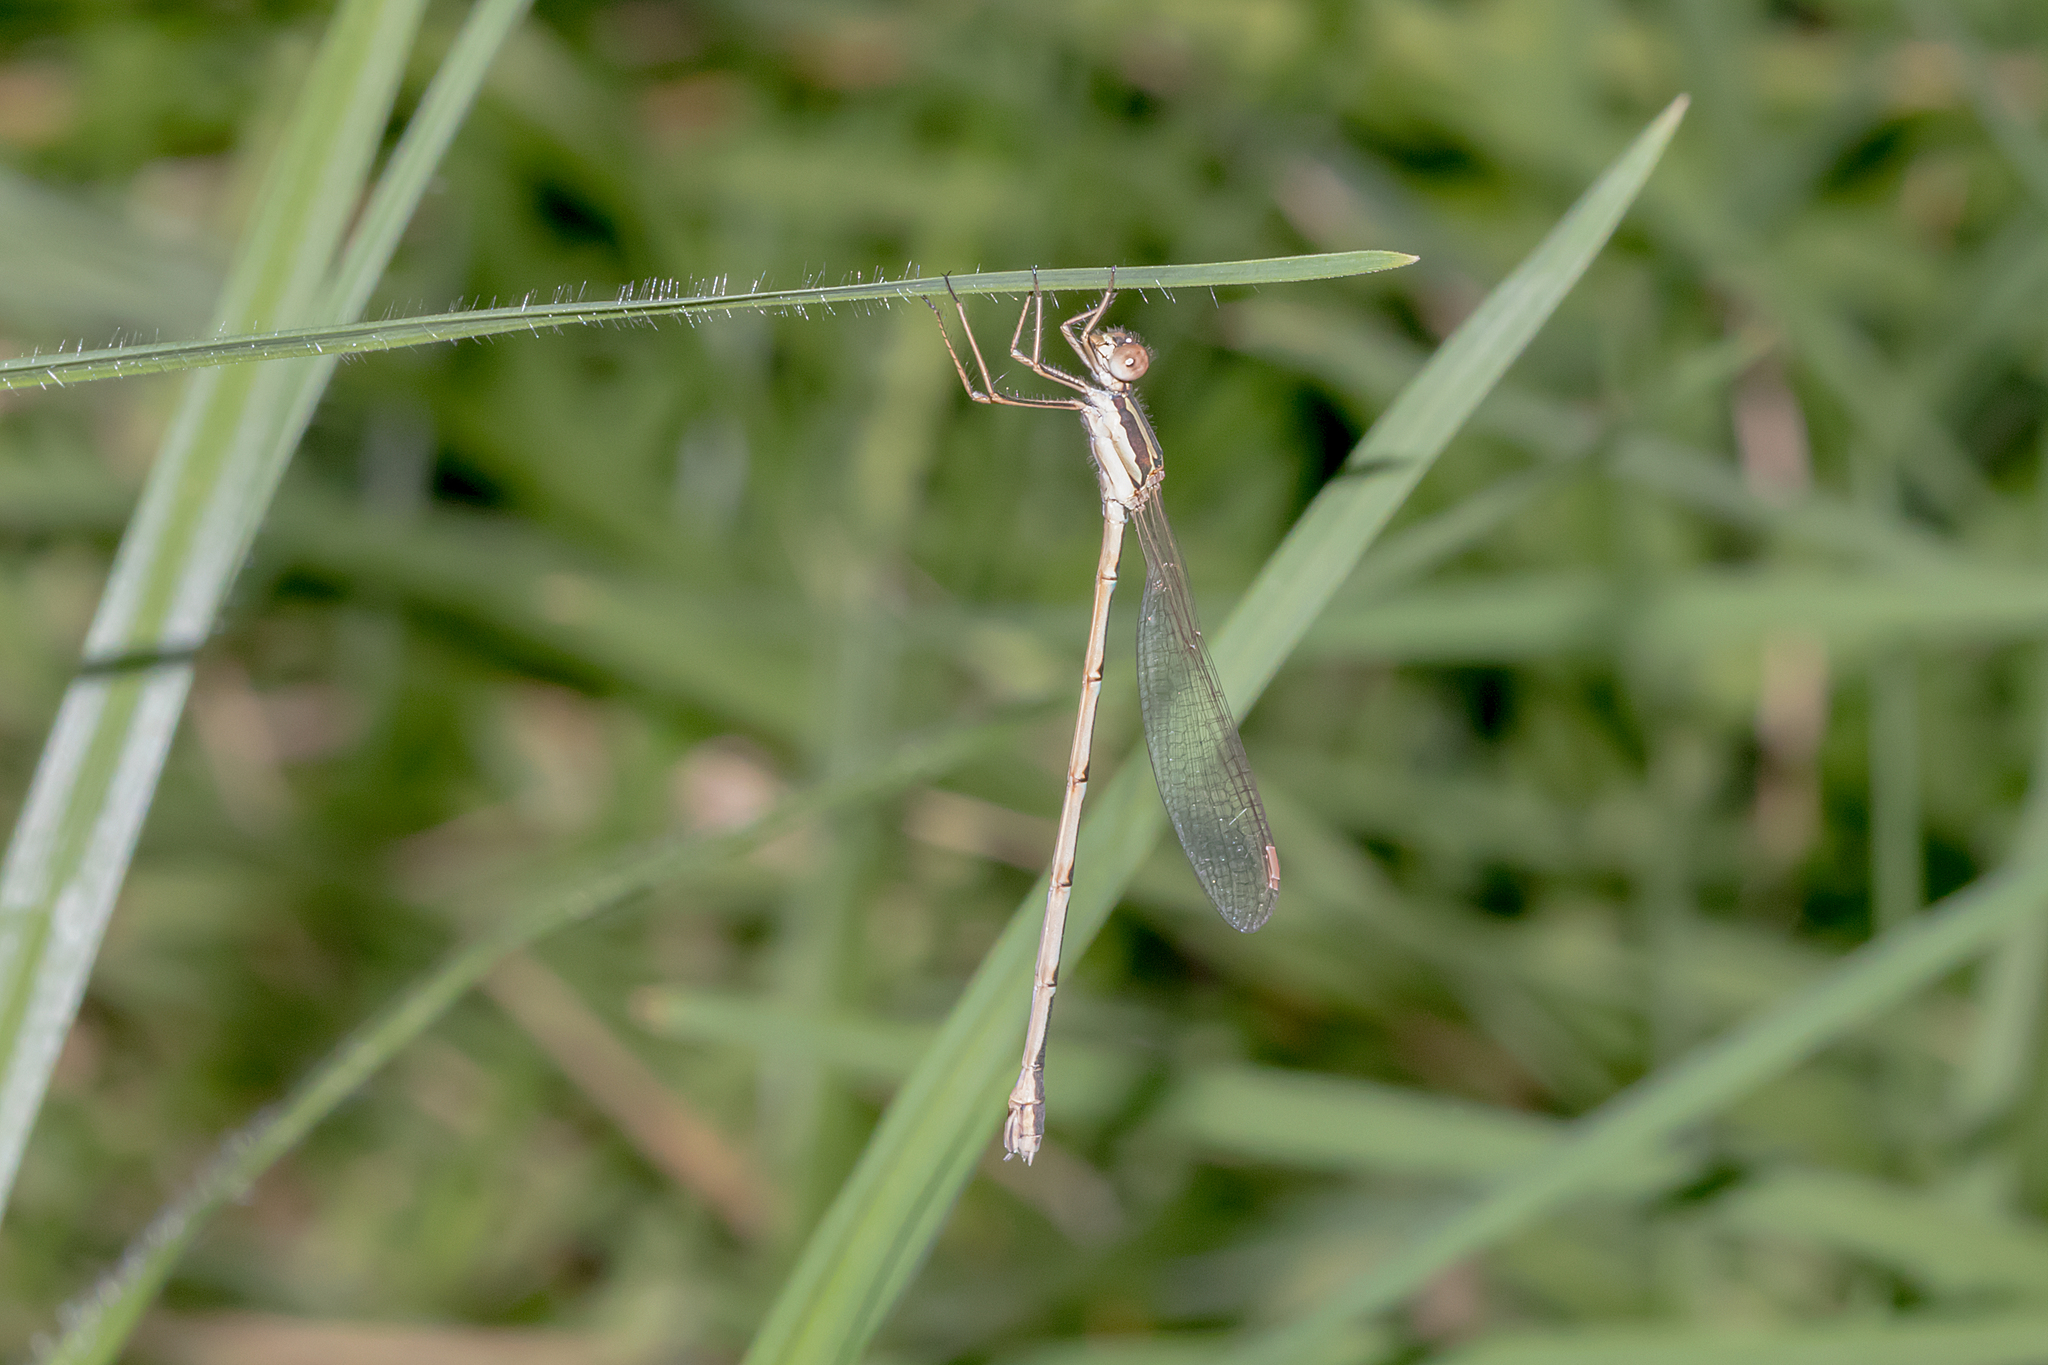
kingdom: Animalia
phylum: Arthropoda
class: Insecta
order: Odonata
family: Lestidae
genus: Austrolestes
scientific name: Austrolestes analis
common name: Slender ringtail
